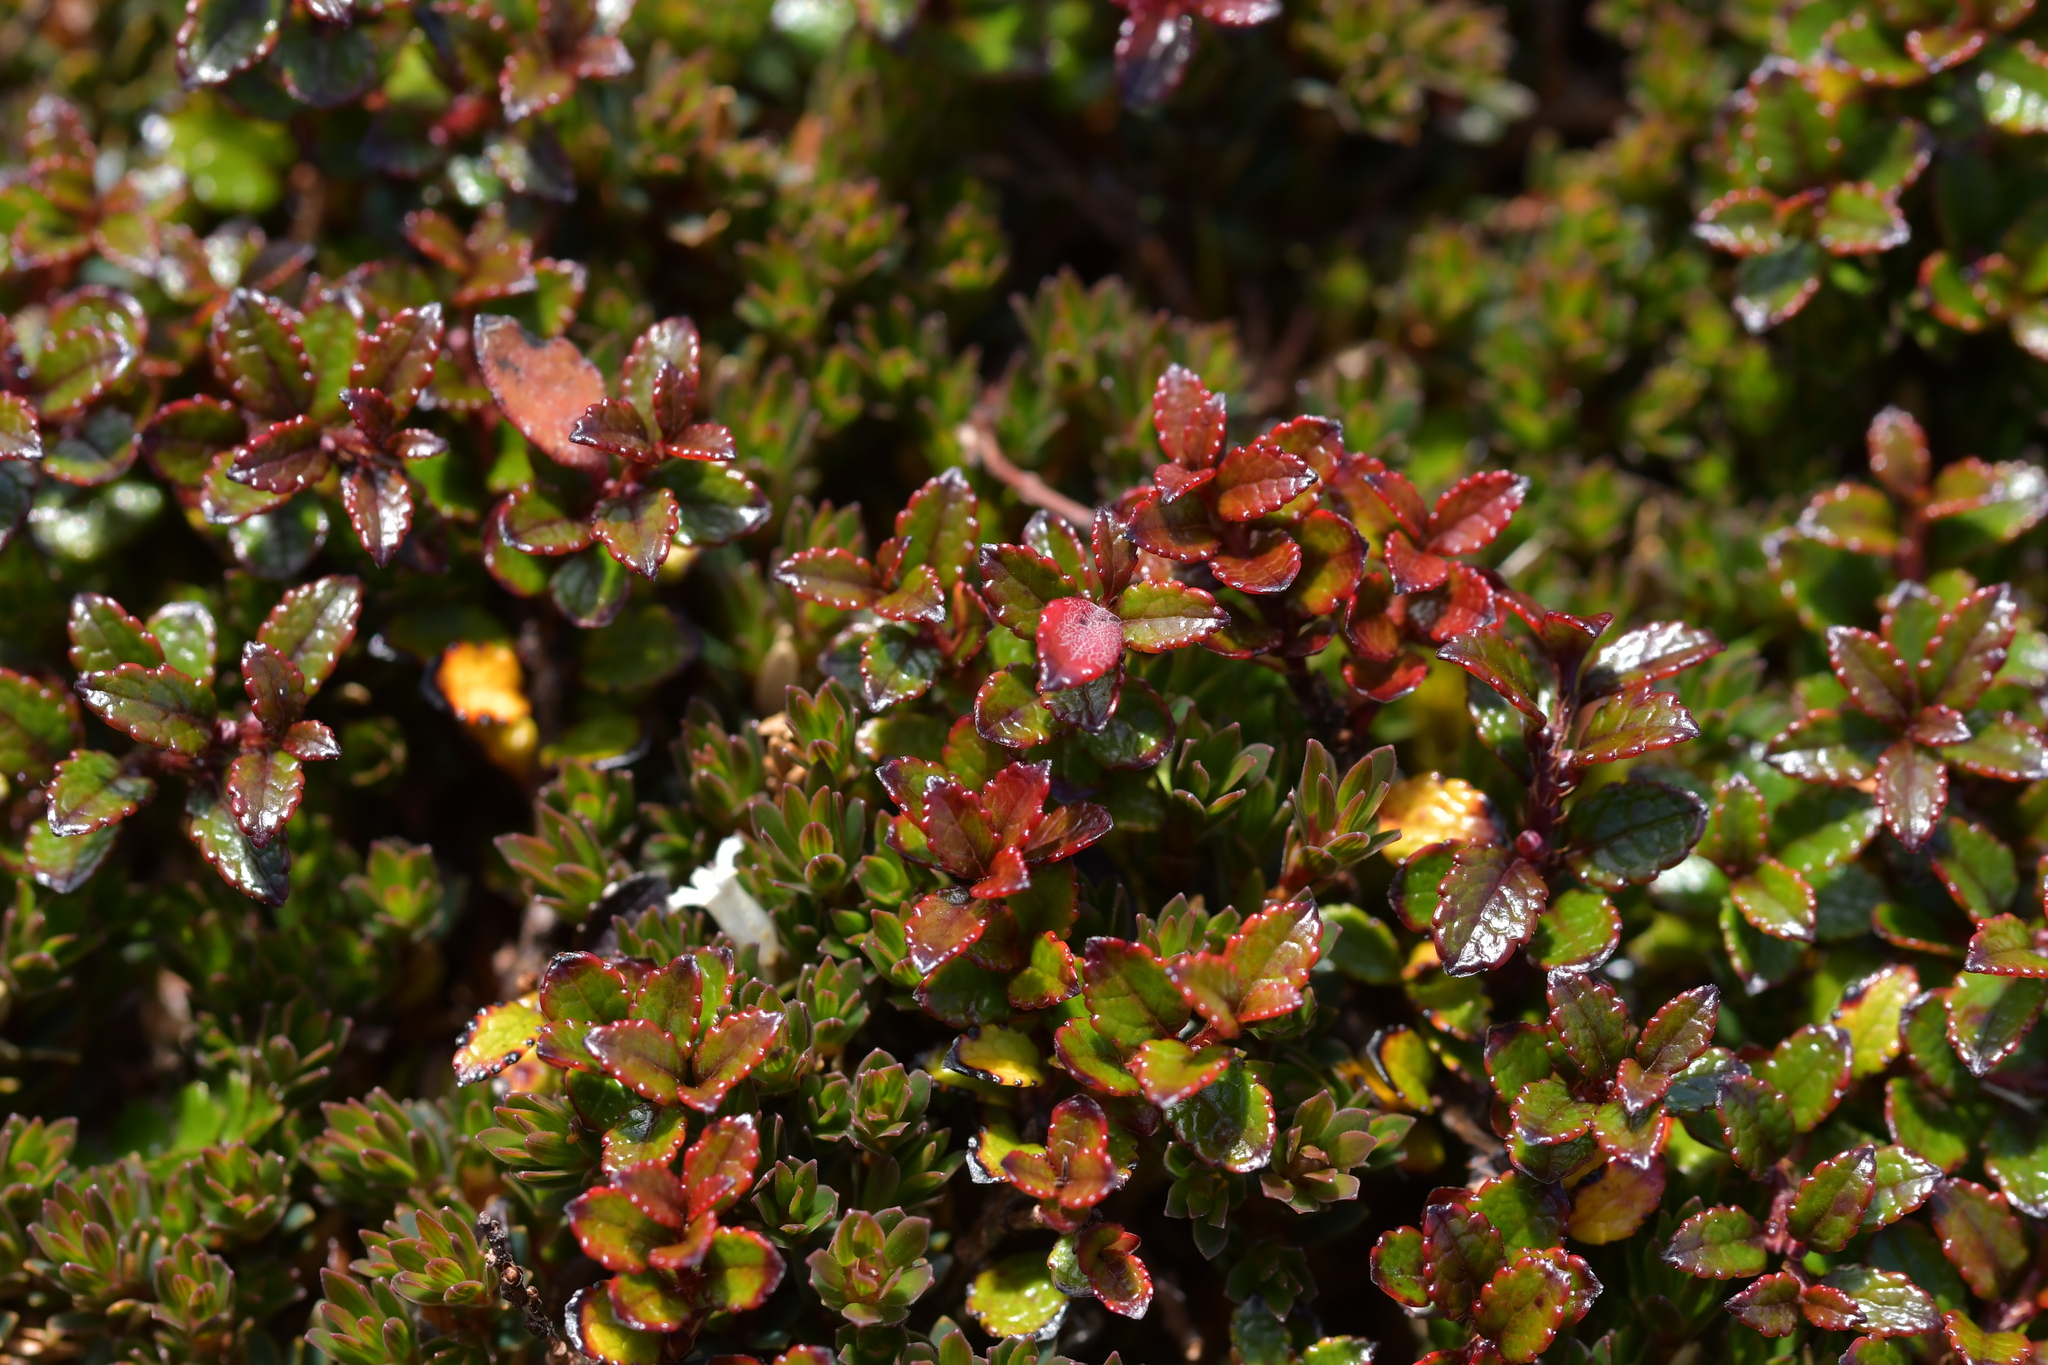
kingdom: Plantae
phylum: Tracheophyta
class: Magnoliopsida
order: Ericales
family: Ericaceae
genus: Gaultheria
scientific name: Gaultheria depressa
